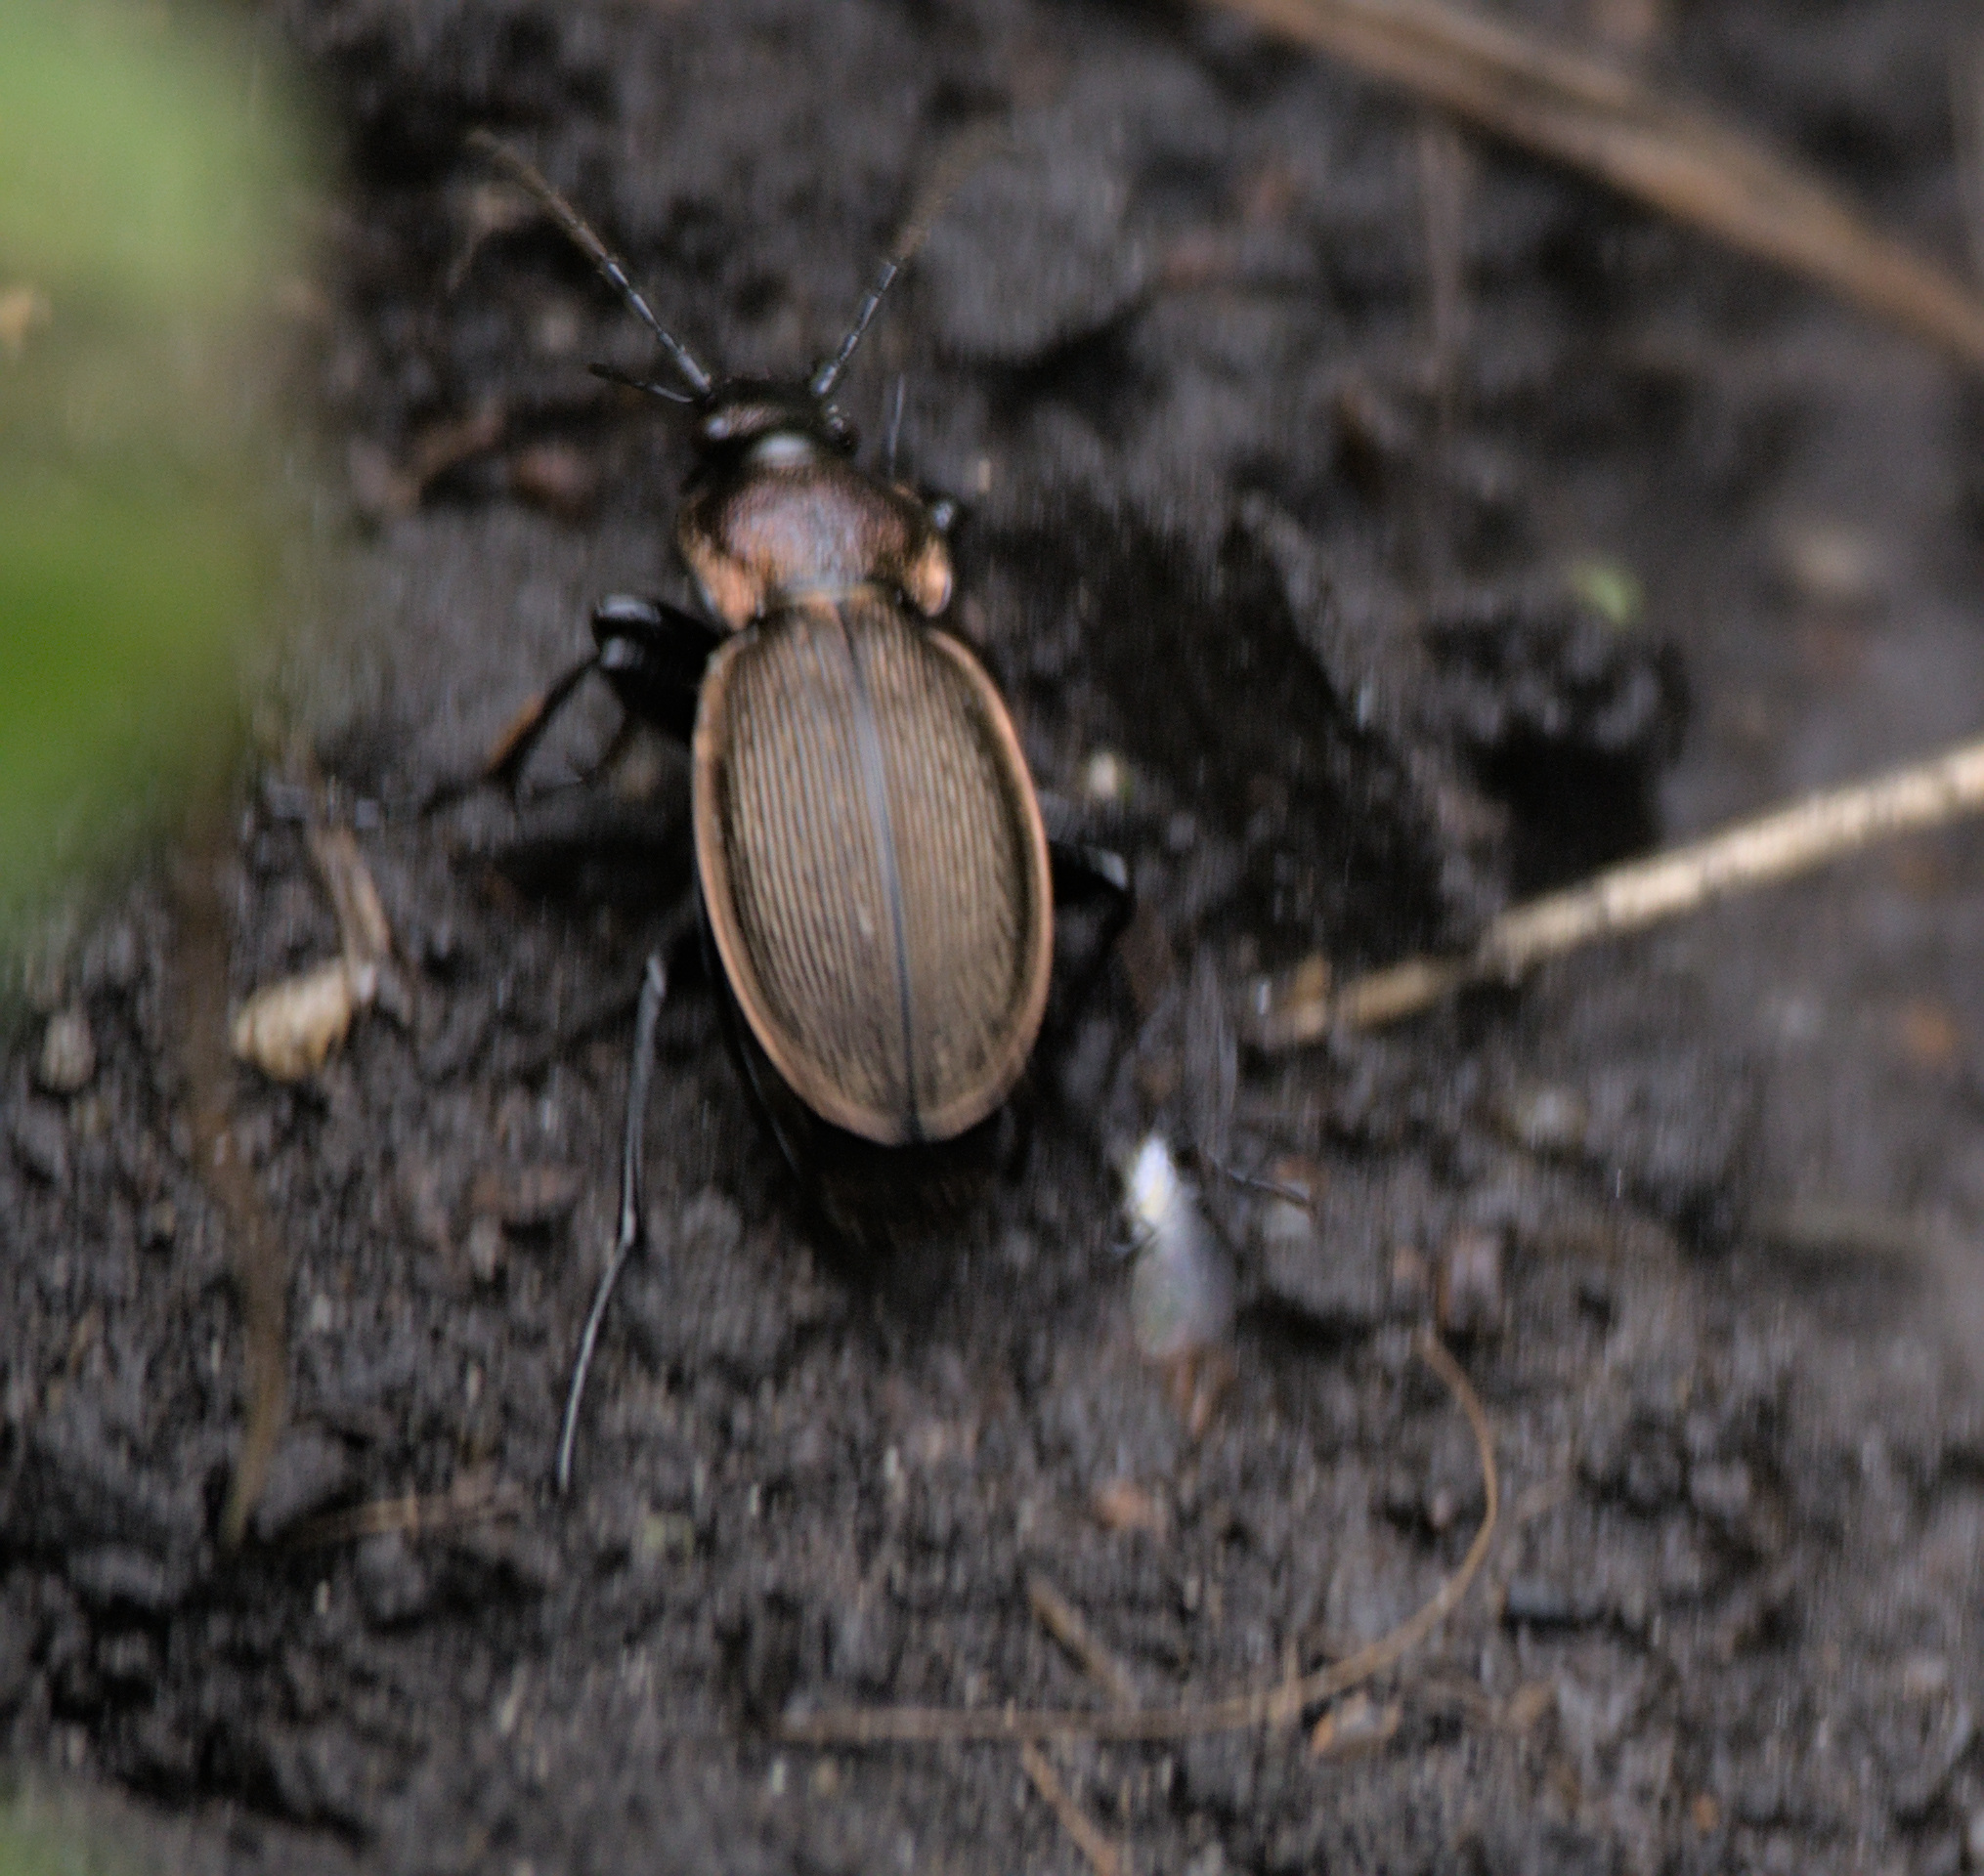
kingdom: Animalia
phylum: Arthropoda
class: Insecta
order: Coleoptera
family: Carabidae
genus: Carabus
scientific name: Carabus regalis
